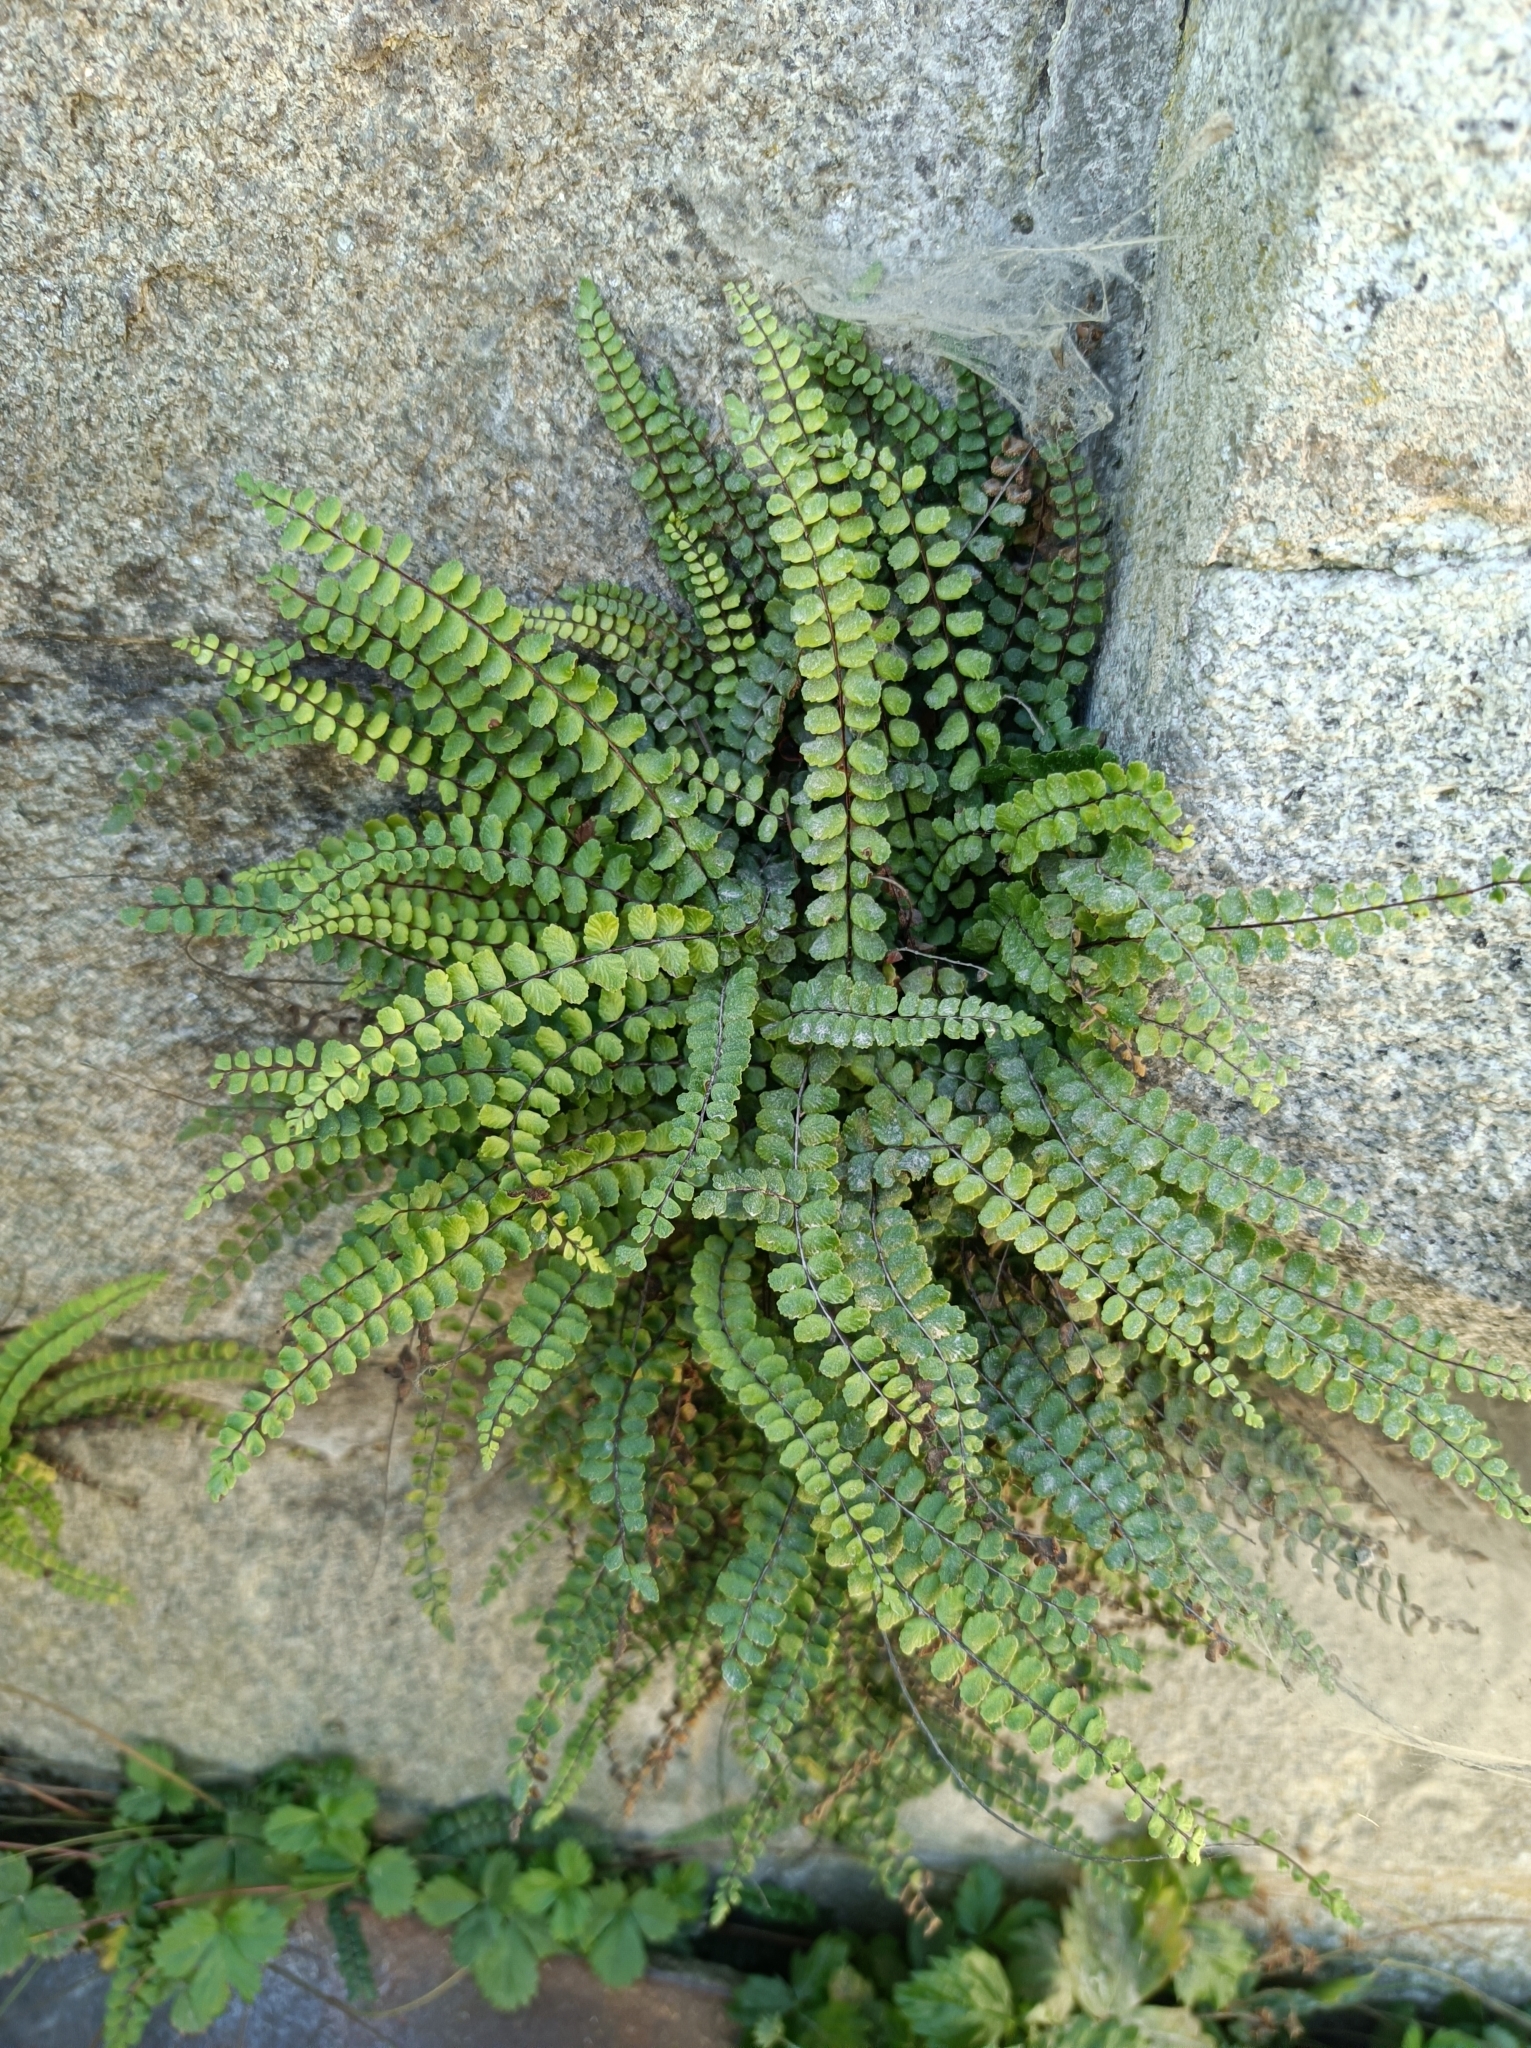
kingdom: Plantae
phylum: Tracheophyta
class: Polypodiopsida
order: Polypodiales
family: Aspleniaceae
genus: Asplenium
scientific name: Asplenium trichomanes
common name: Maidenhair spleenwort
